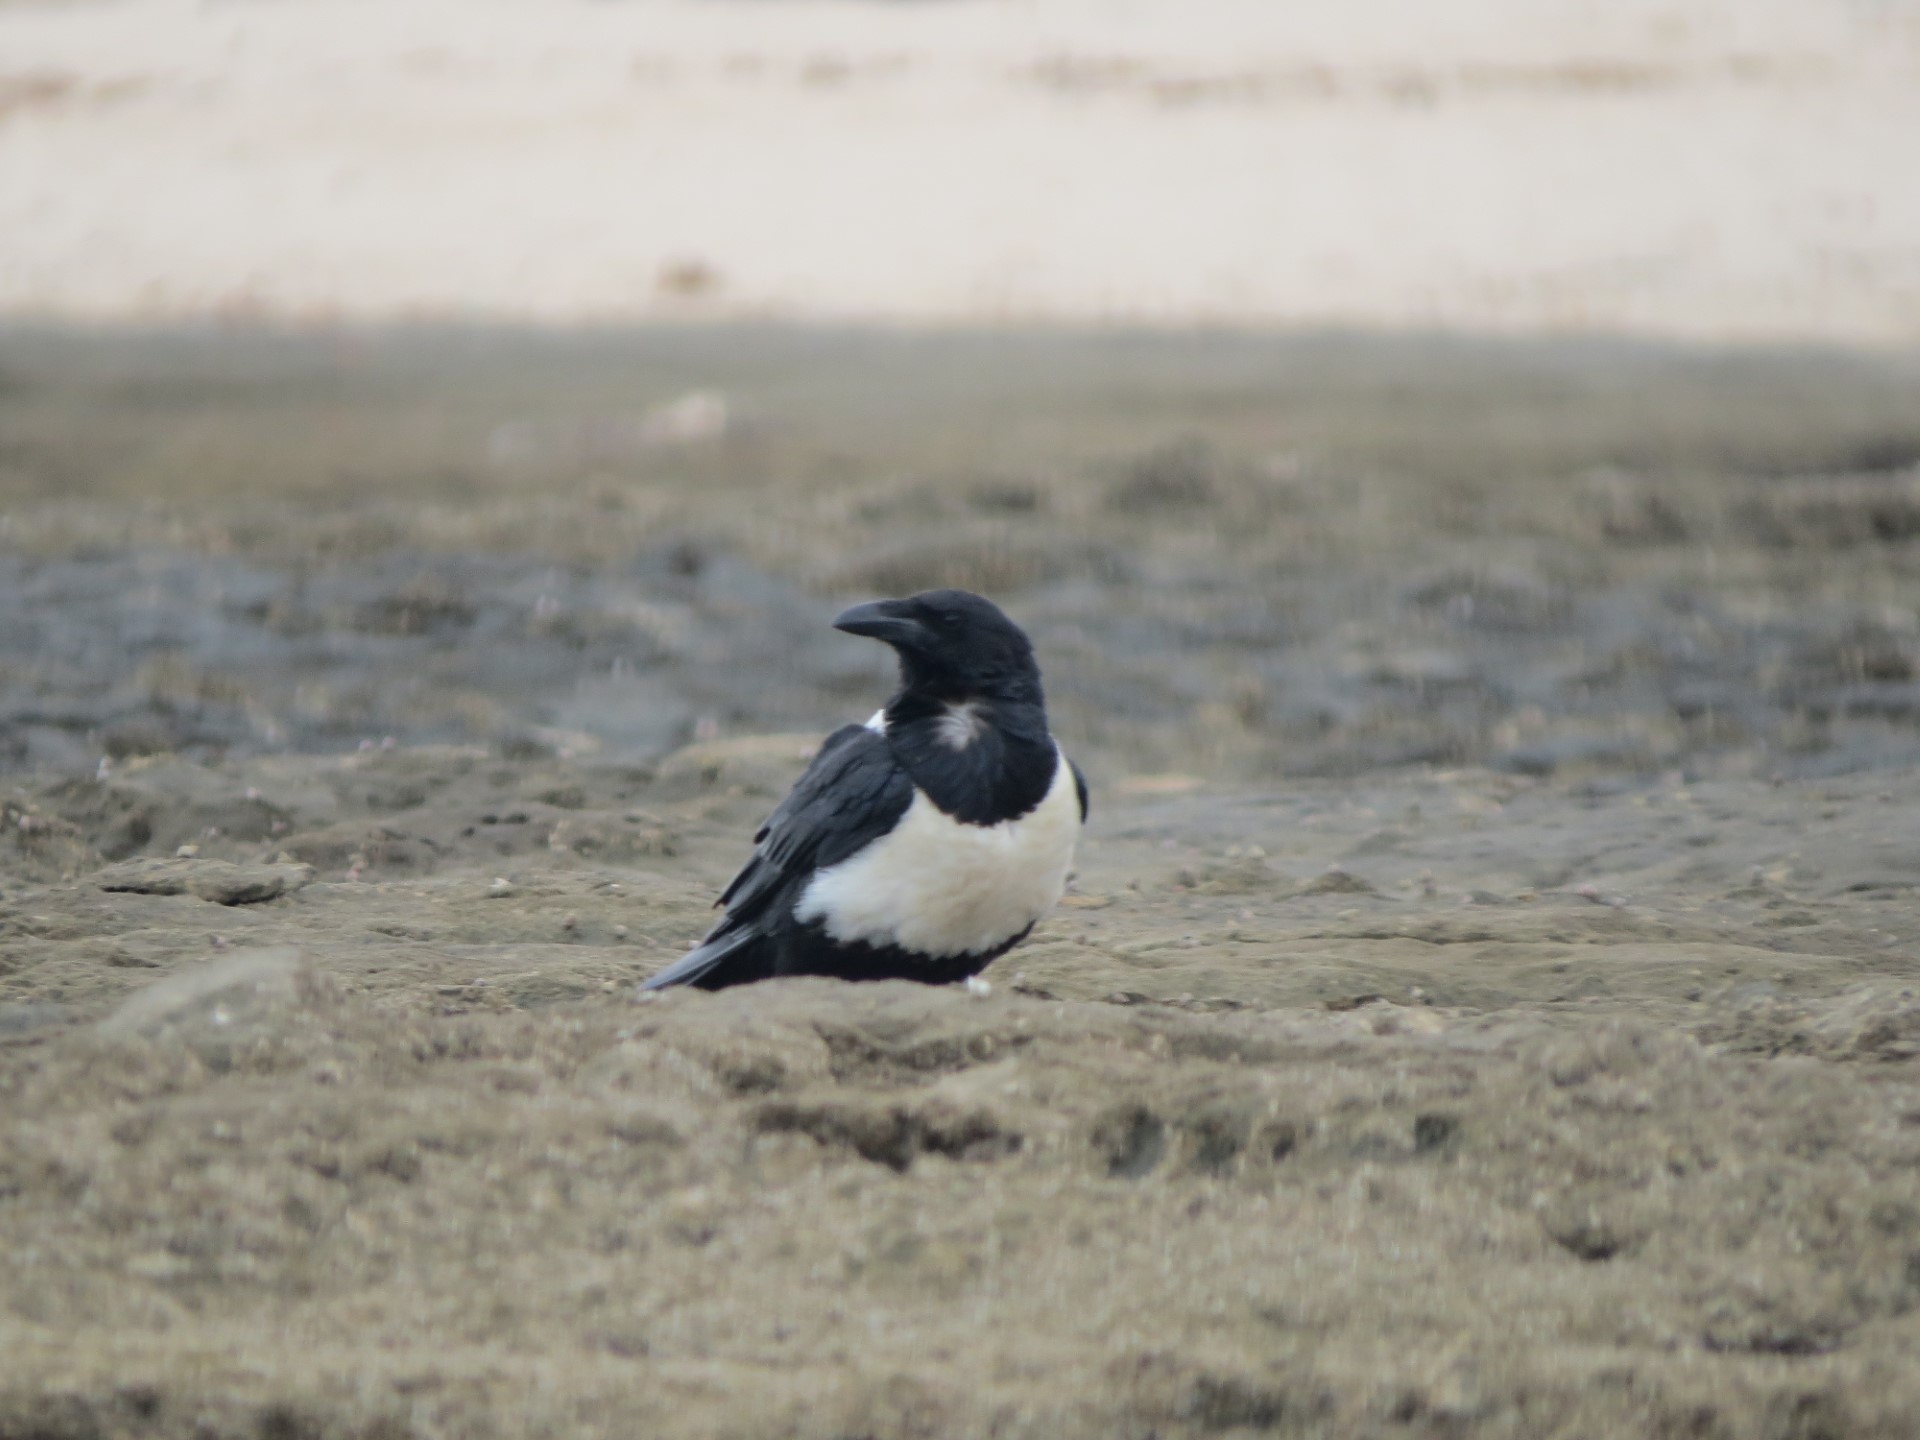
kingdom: Animalia
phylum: Chordata
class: Aves
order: Passeriformes
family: Corvidae
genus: Corvus
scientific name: Corvus albus
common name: Pied crow
